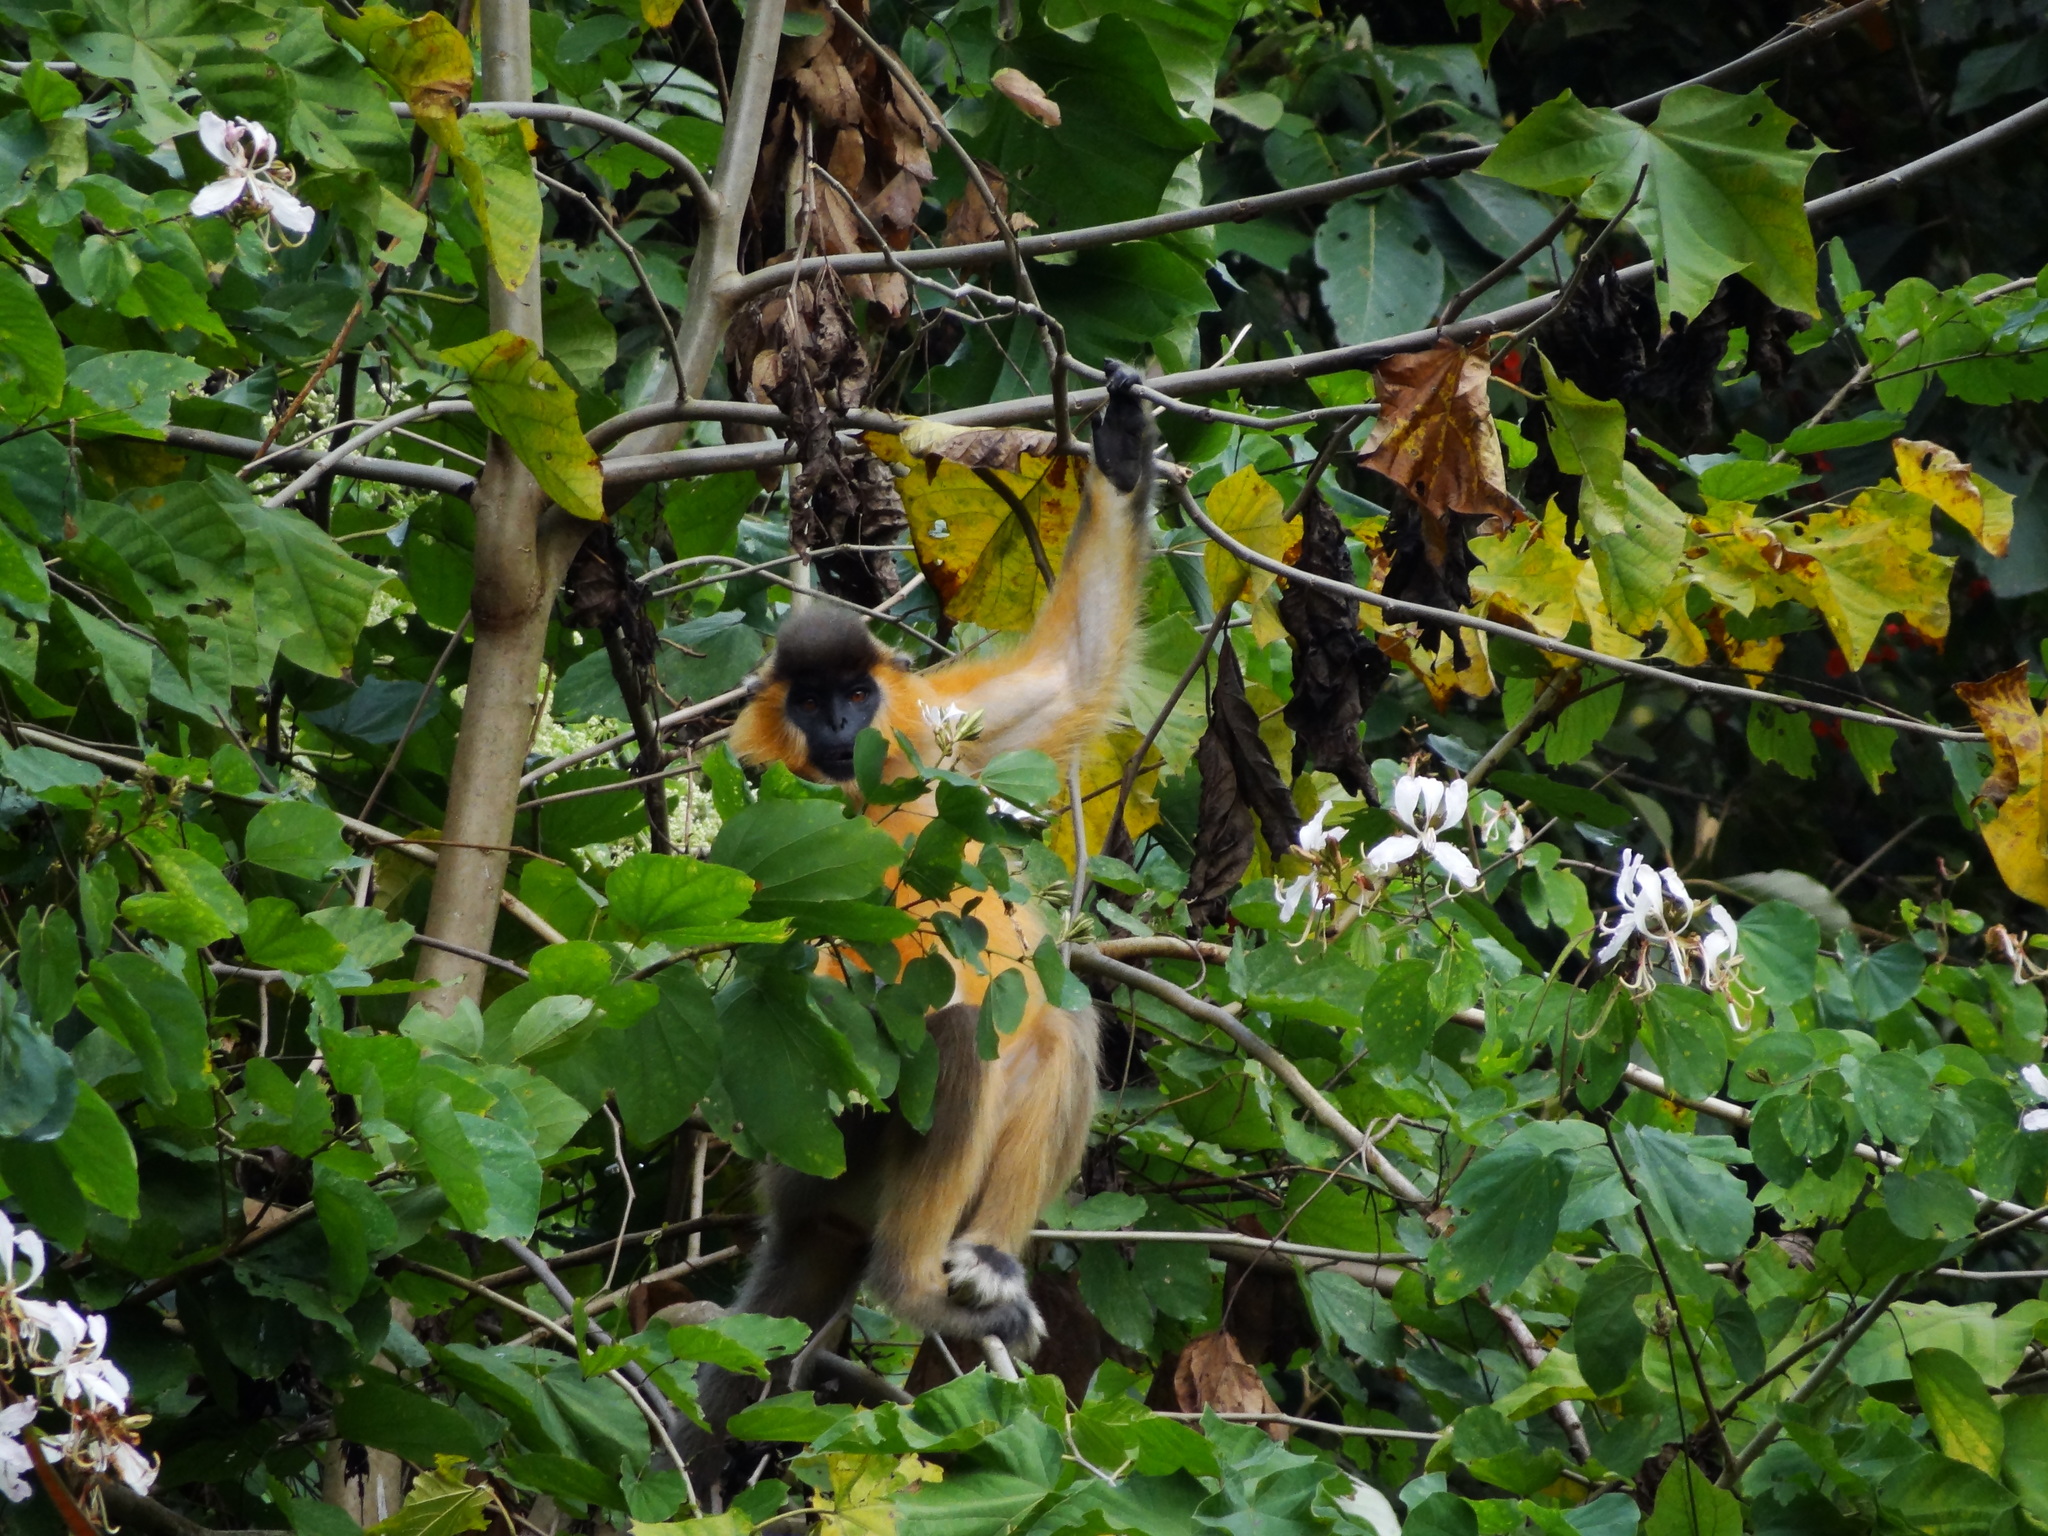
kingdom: Animalia
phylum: Chordata
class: Mammalia
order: Primates
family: Cercopithecidae
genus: Trachypithecus
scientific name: Trachypithecus pileatus
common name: Capped langur
